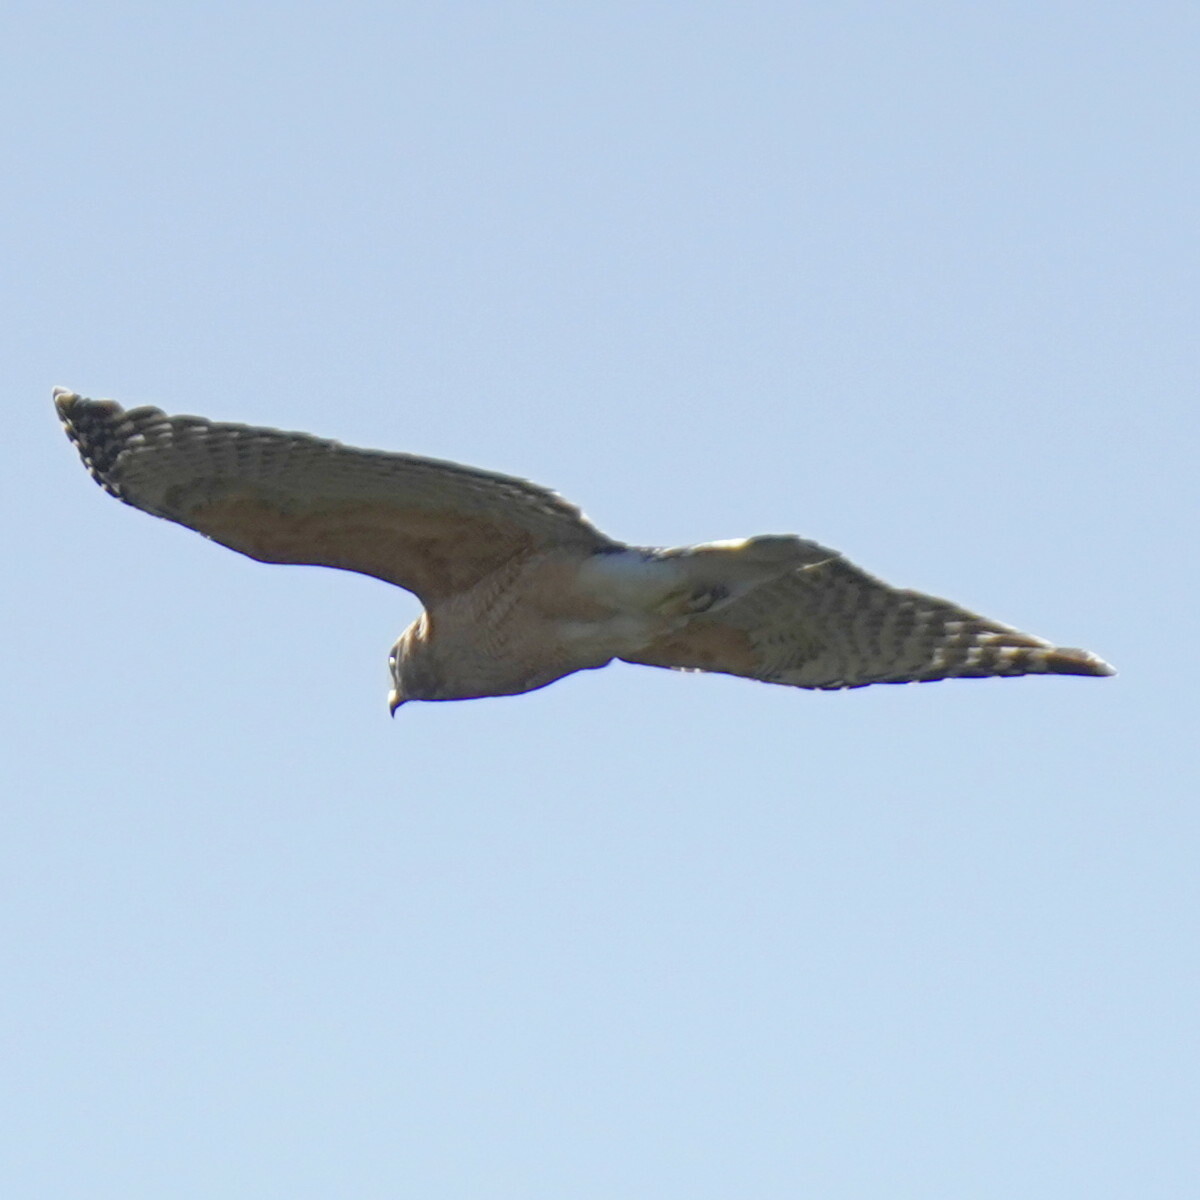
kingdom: Animalia
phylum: Chordata
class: Aves
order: Accipitriformes
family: Accipitridae
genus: Buteo
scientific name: Buteo lineatus
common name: Red-shouldered hawk
